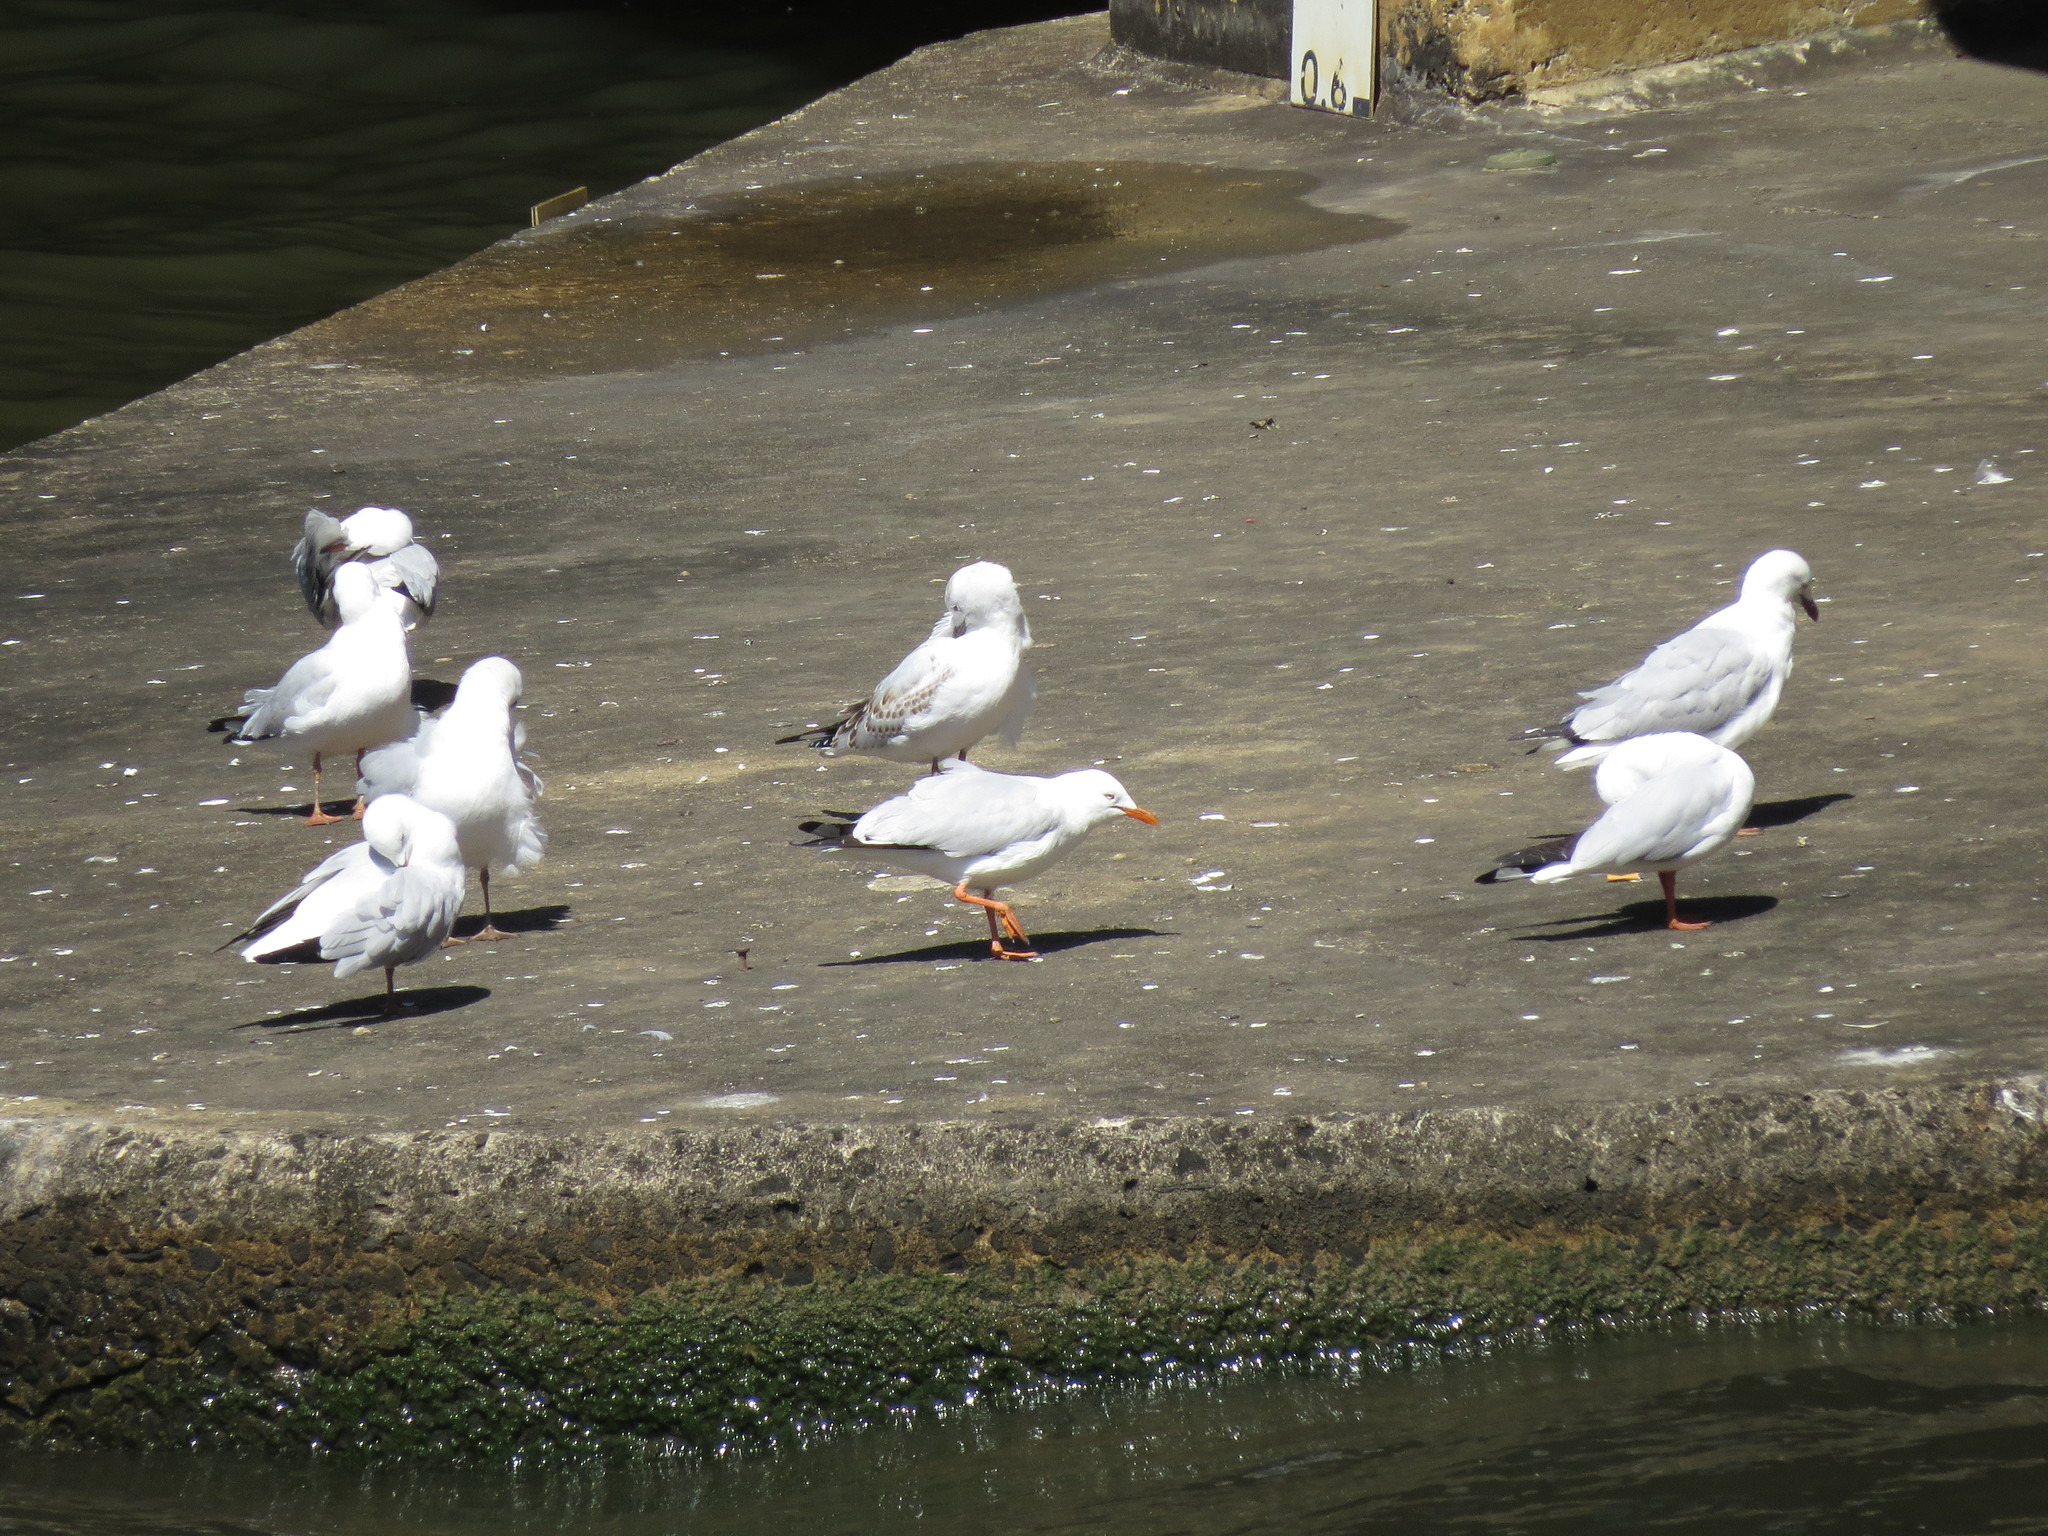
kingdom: Animalia
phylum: Chordata
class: Aves
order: Charadriiformes
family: Laridae
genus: Chroicocephalus
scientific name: Chroicocephalus novaehollandiae
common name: Silver gull
